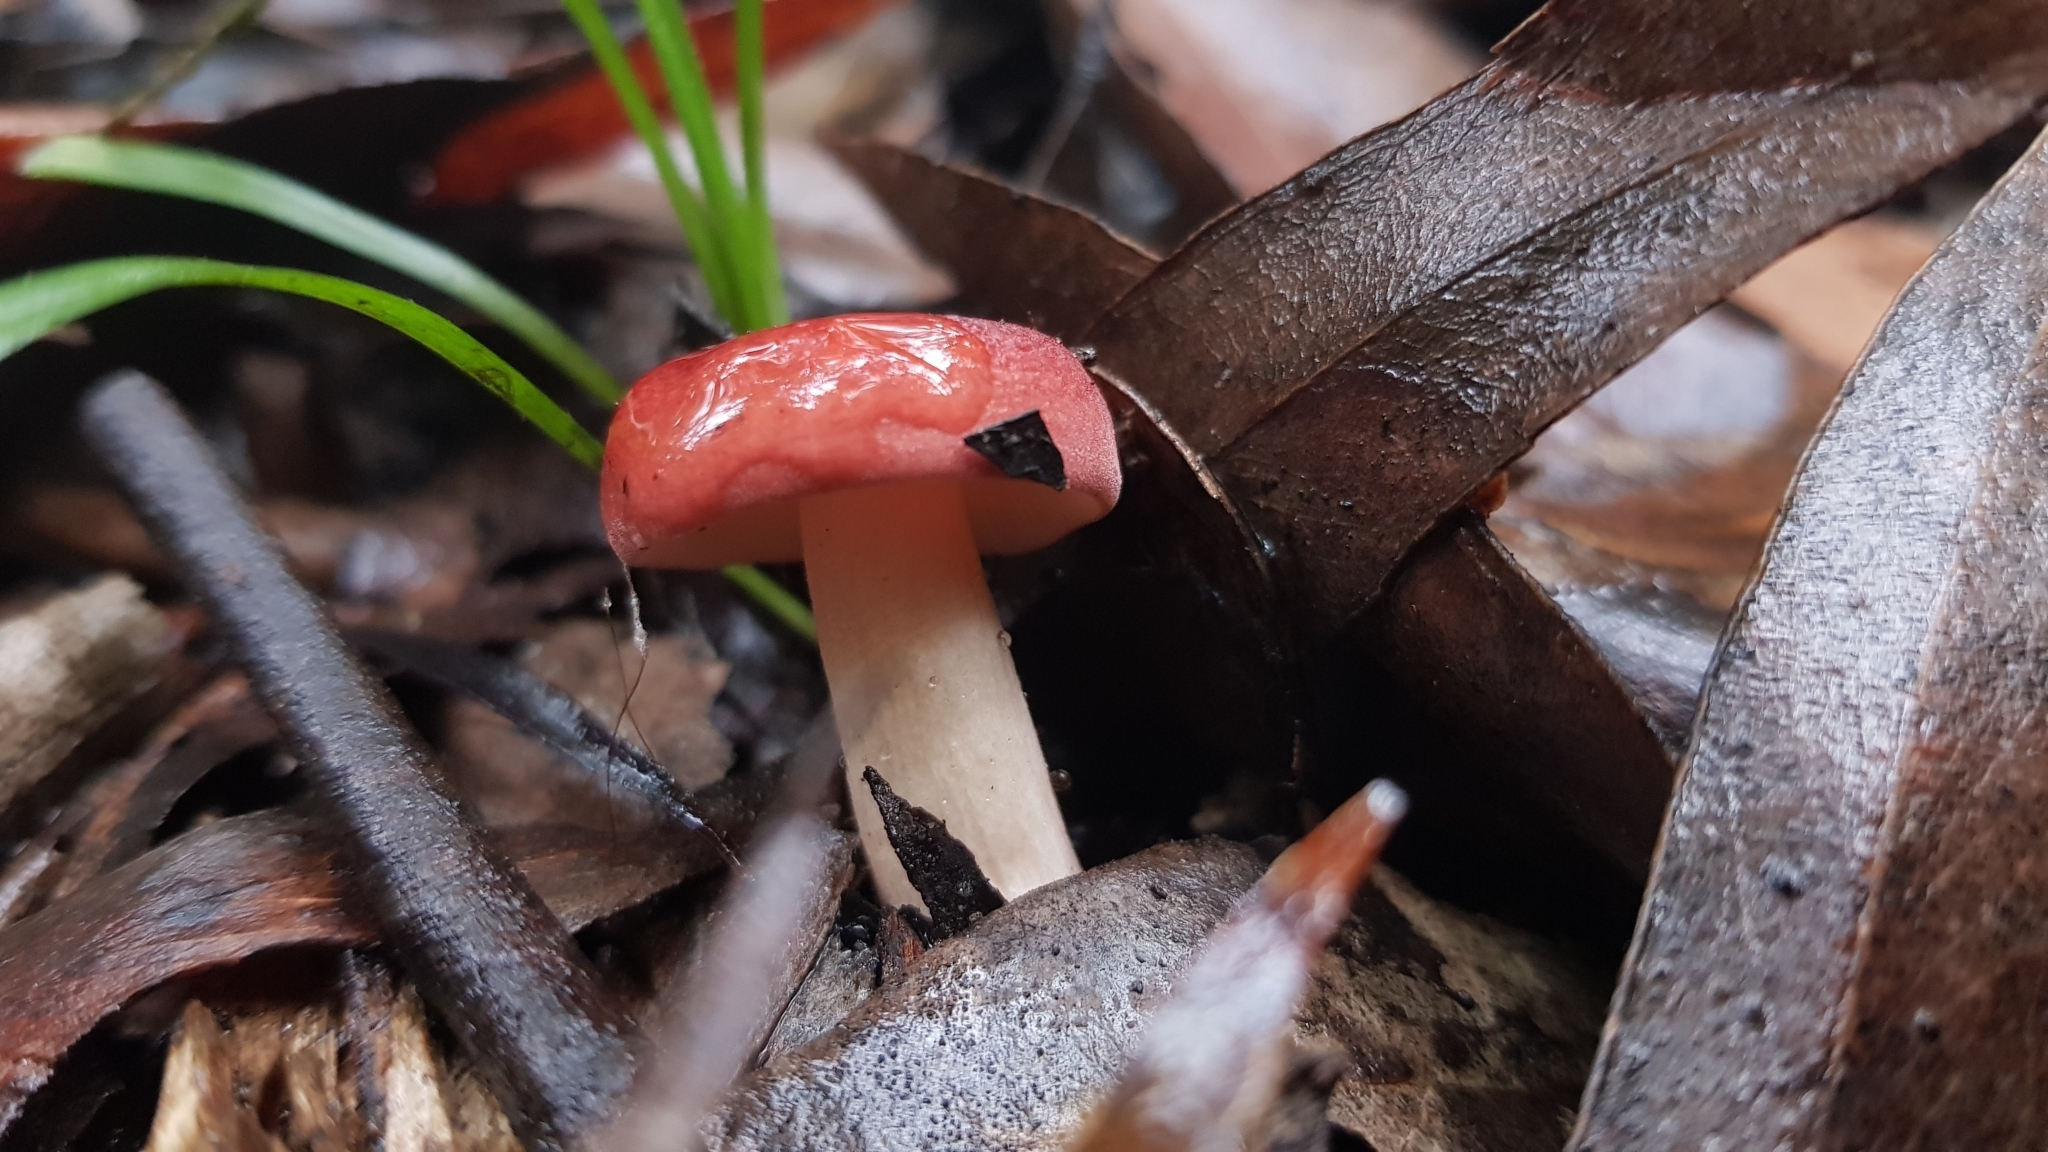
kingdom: Fungi
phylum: Basidiomycota
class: Agaricomycetes
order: Russulales
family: Russulaceae
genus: Russula
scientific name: Russula persanguinea
